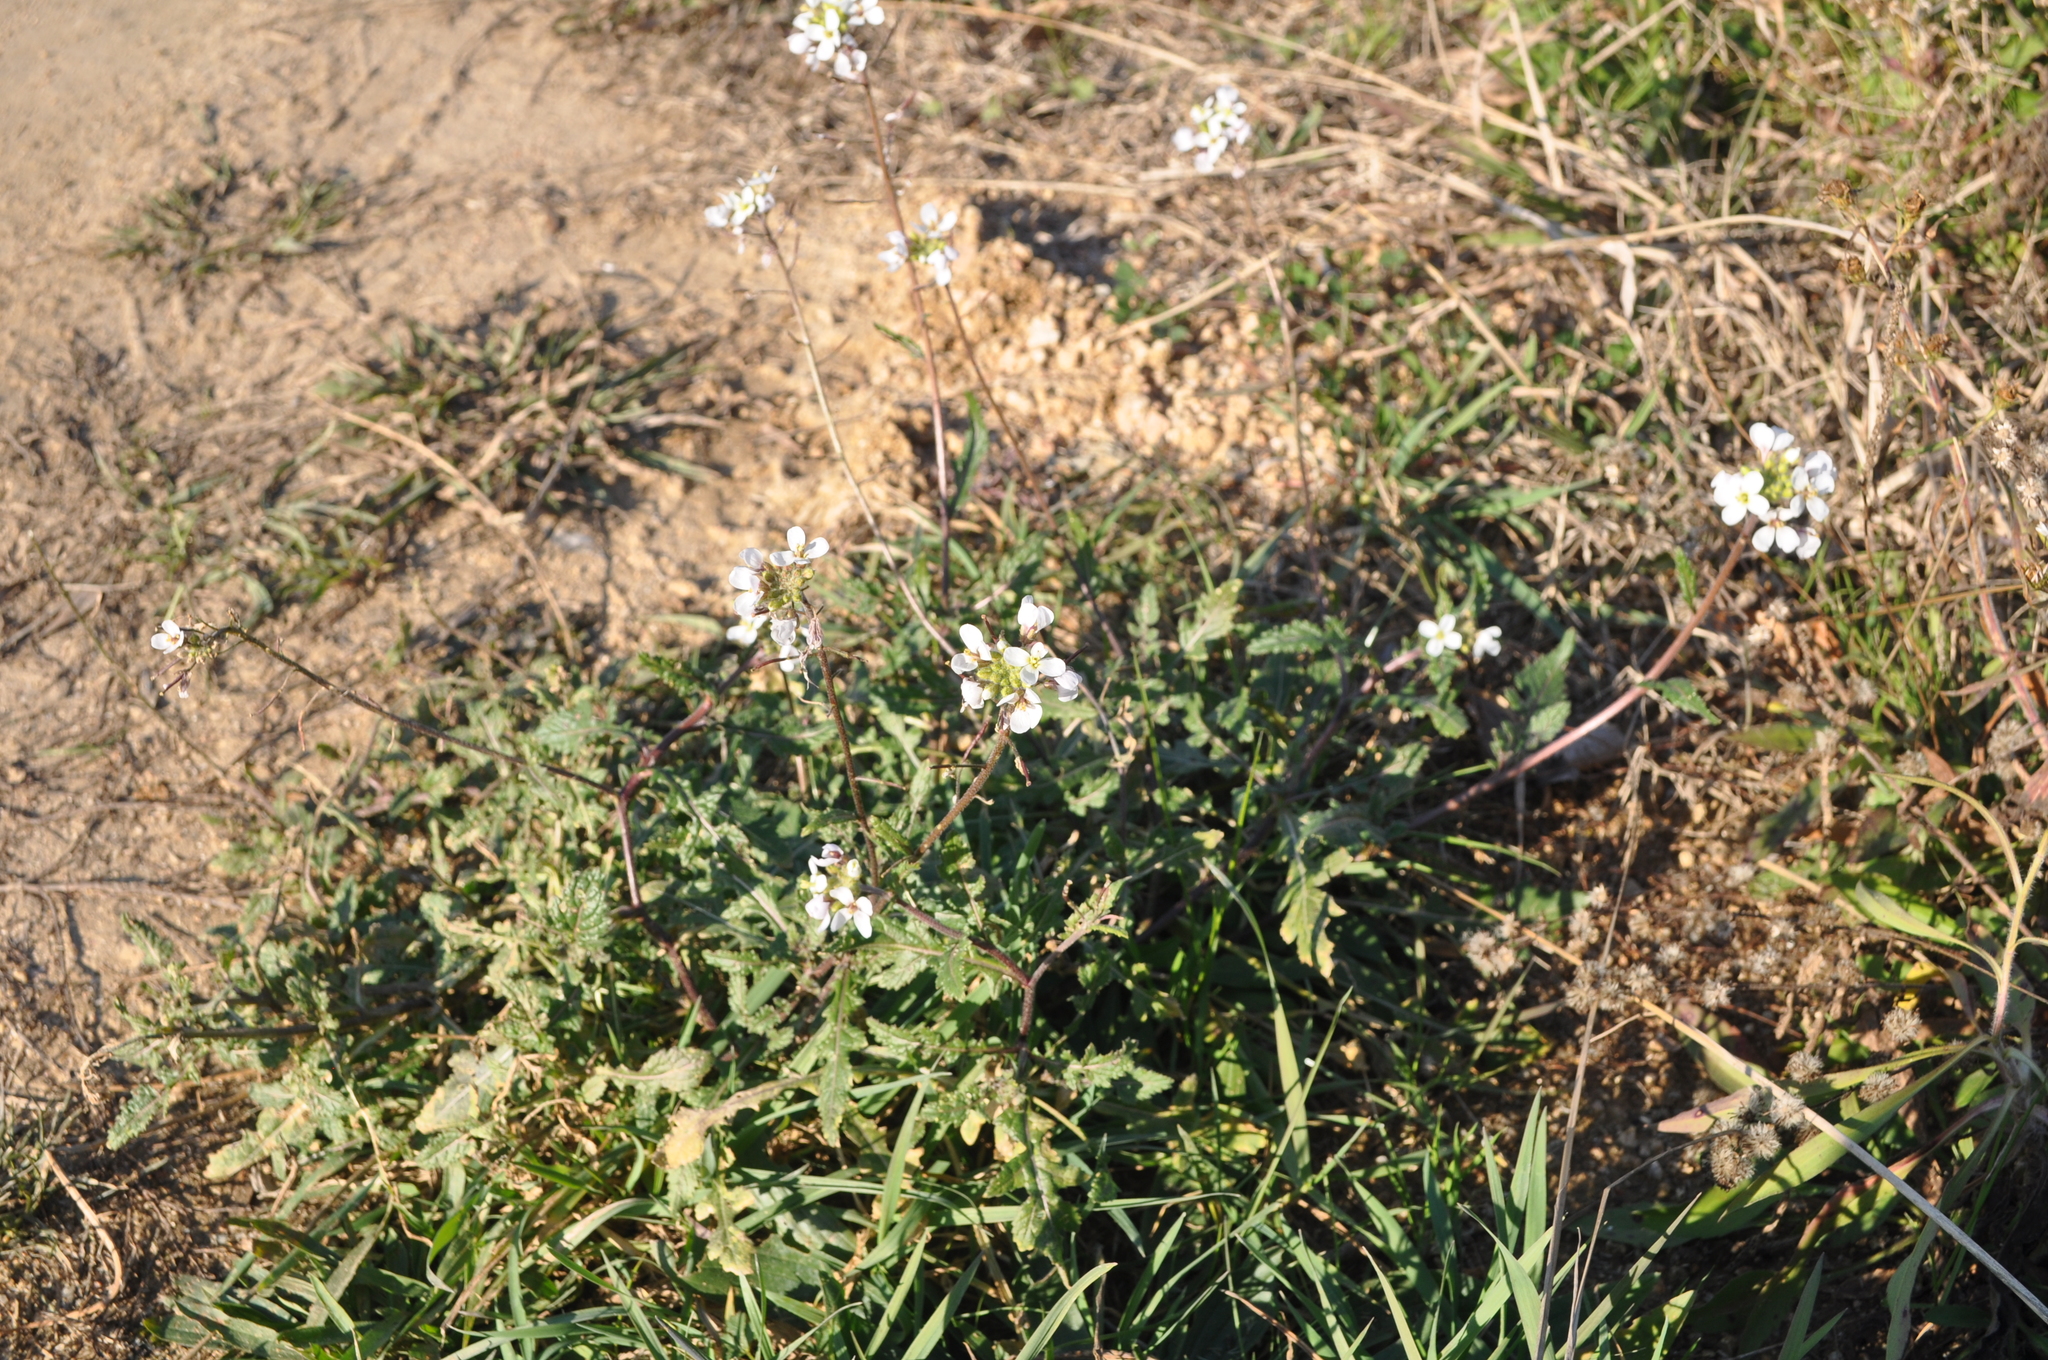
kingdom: Plantae
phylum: Tracheophyta
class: Magnoliopsida
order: Brassicales
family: Brassicaceae
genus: Diplotaxis
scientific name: Diplotaxis erucoides
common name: White rocket
